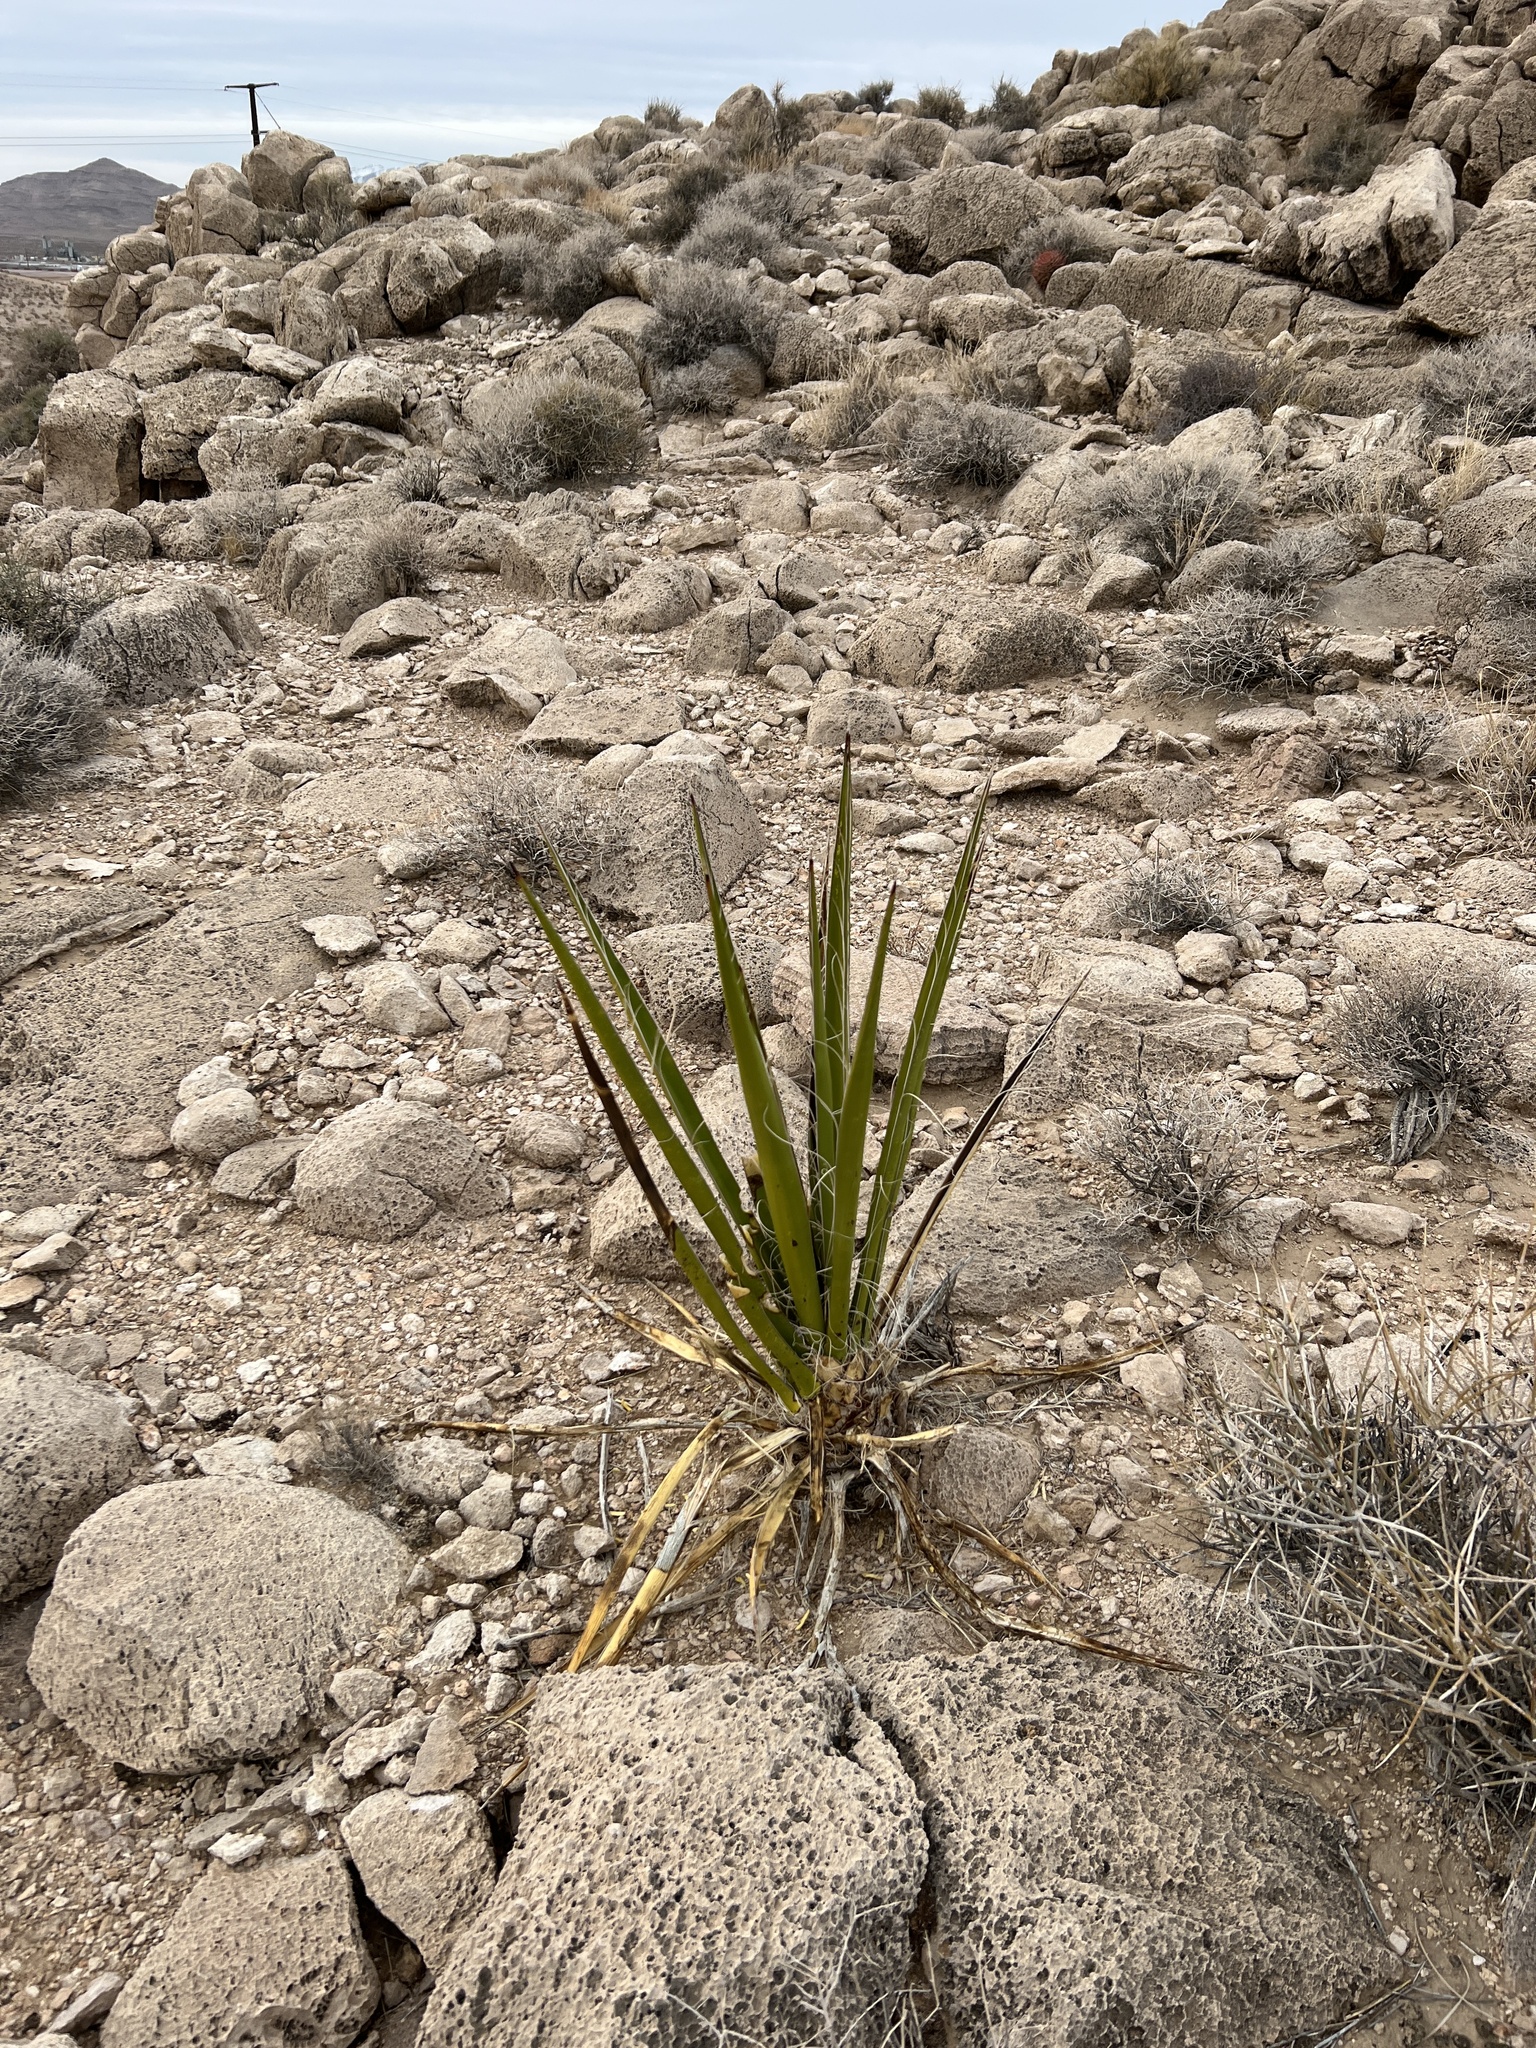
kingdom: Plantae
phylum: Tracheophyta
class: Liliopsida
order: Asparagales
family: Asparagaceae
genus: Yucca
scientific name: Yucca schidigera
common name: Mojave yucca
